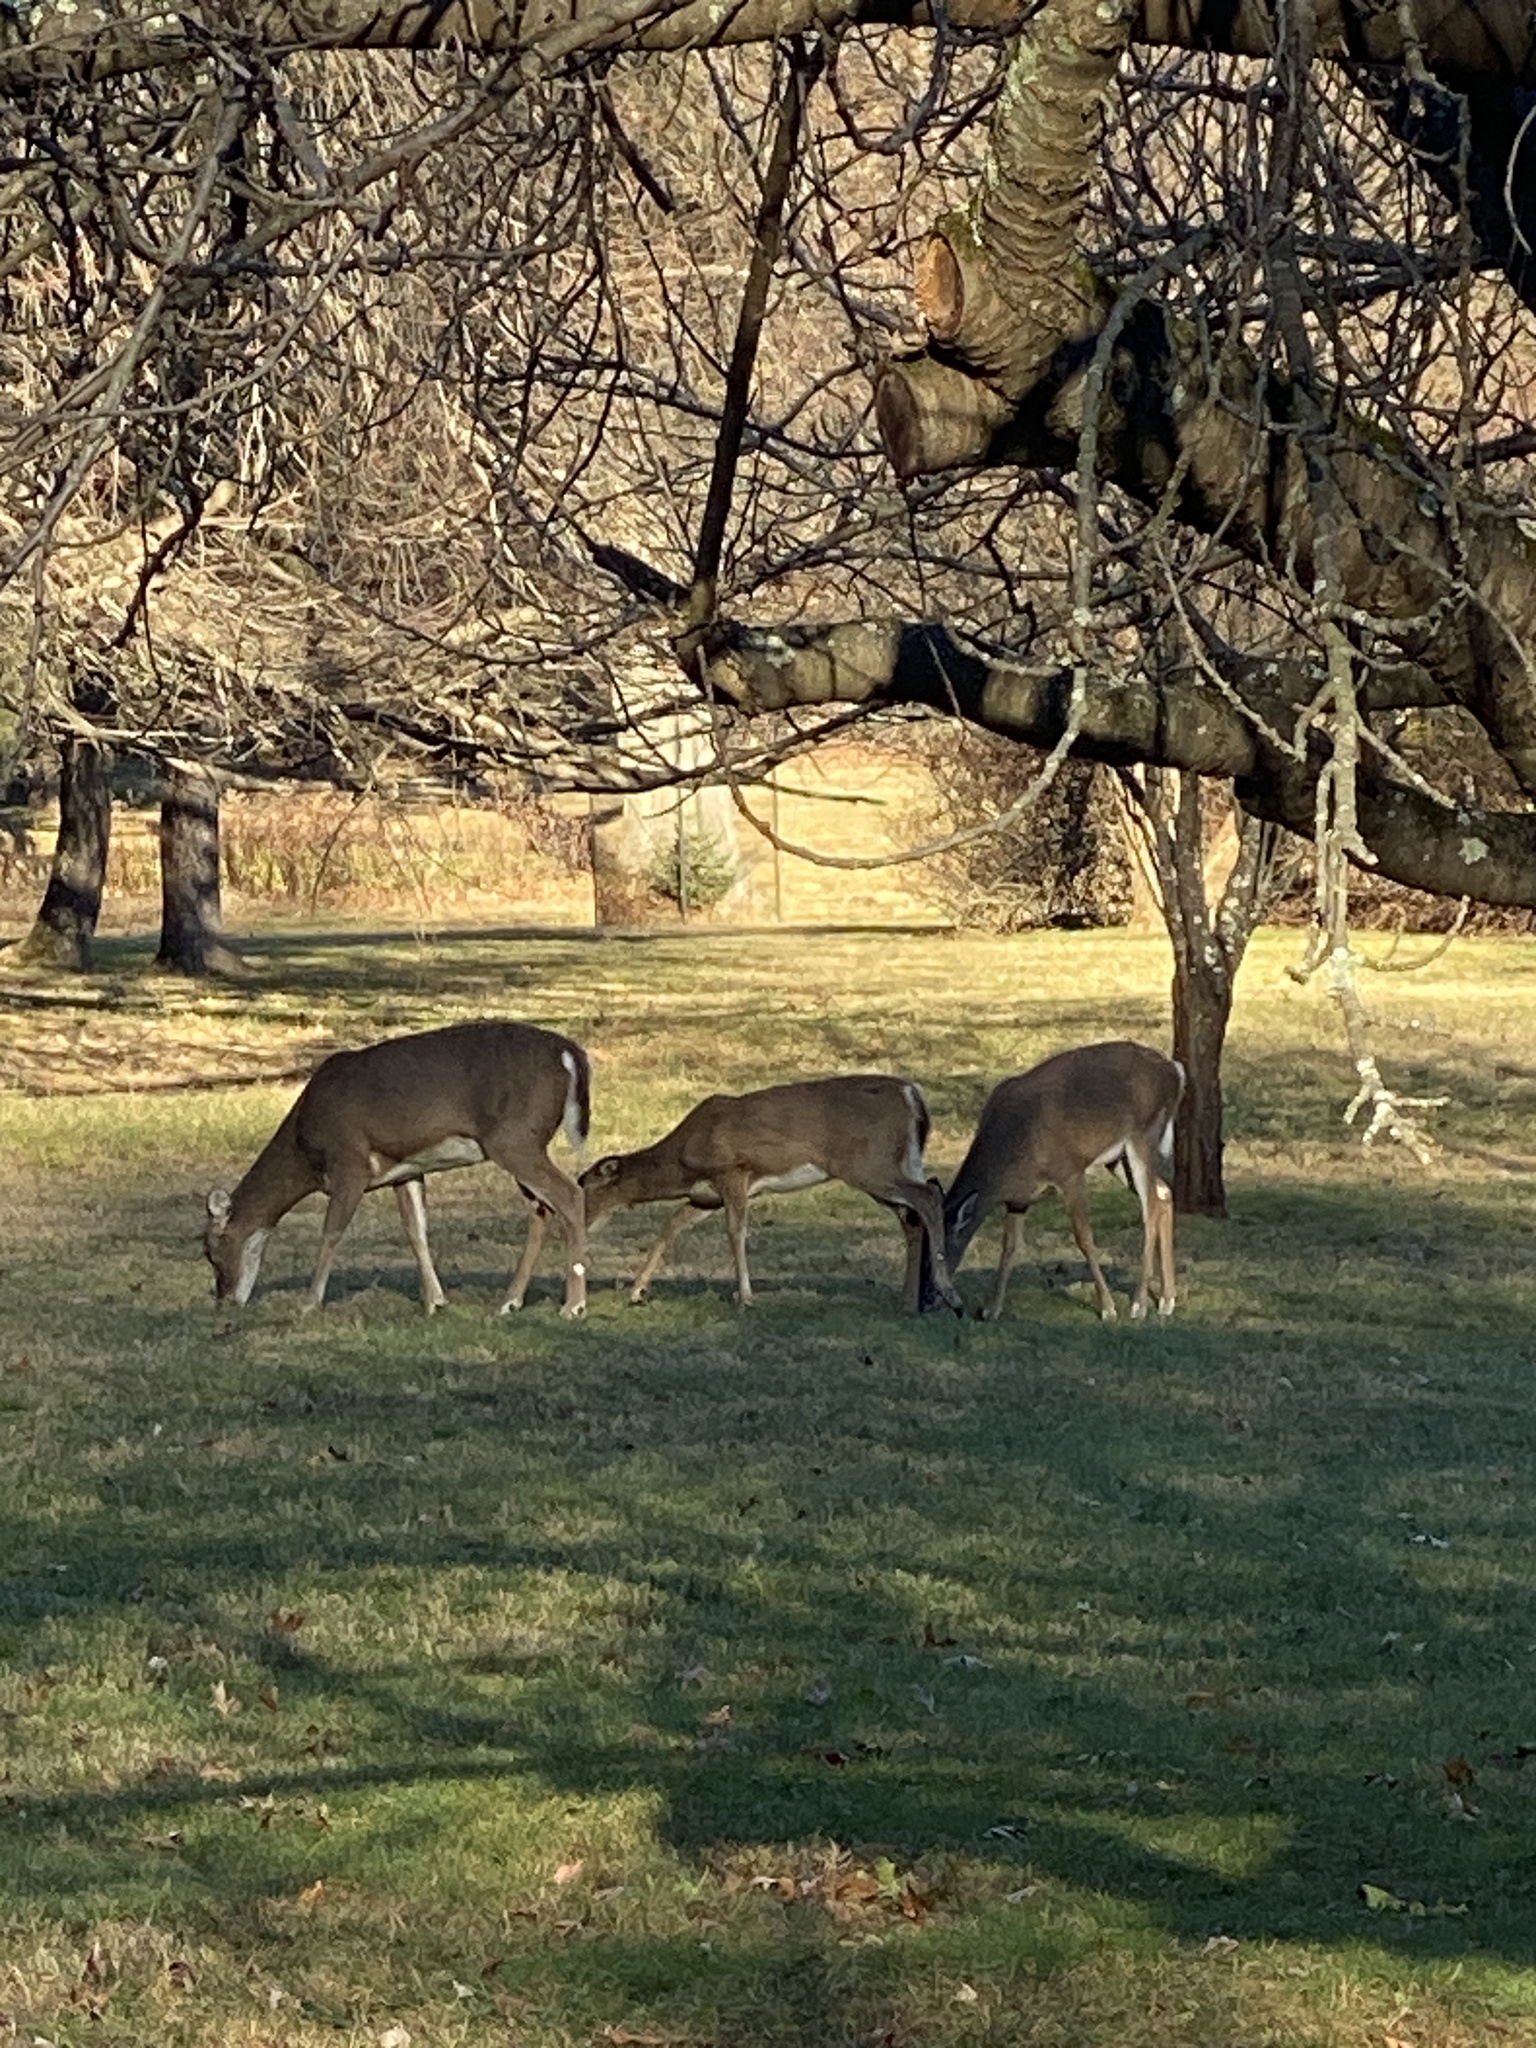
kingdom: Animalia
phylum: Chordata
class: Mammalia
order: Artiodactyla
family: Cervidae
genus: Odocoileus
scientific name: Odocoileus virginianus
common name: White-tailed deer
